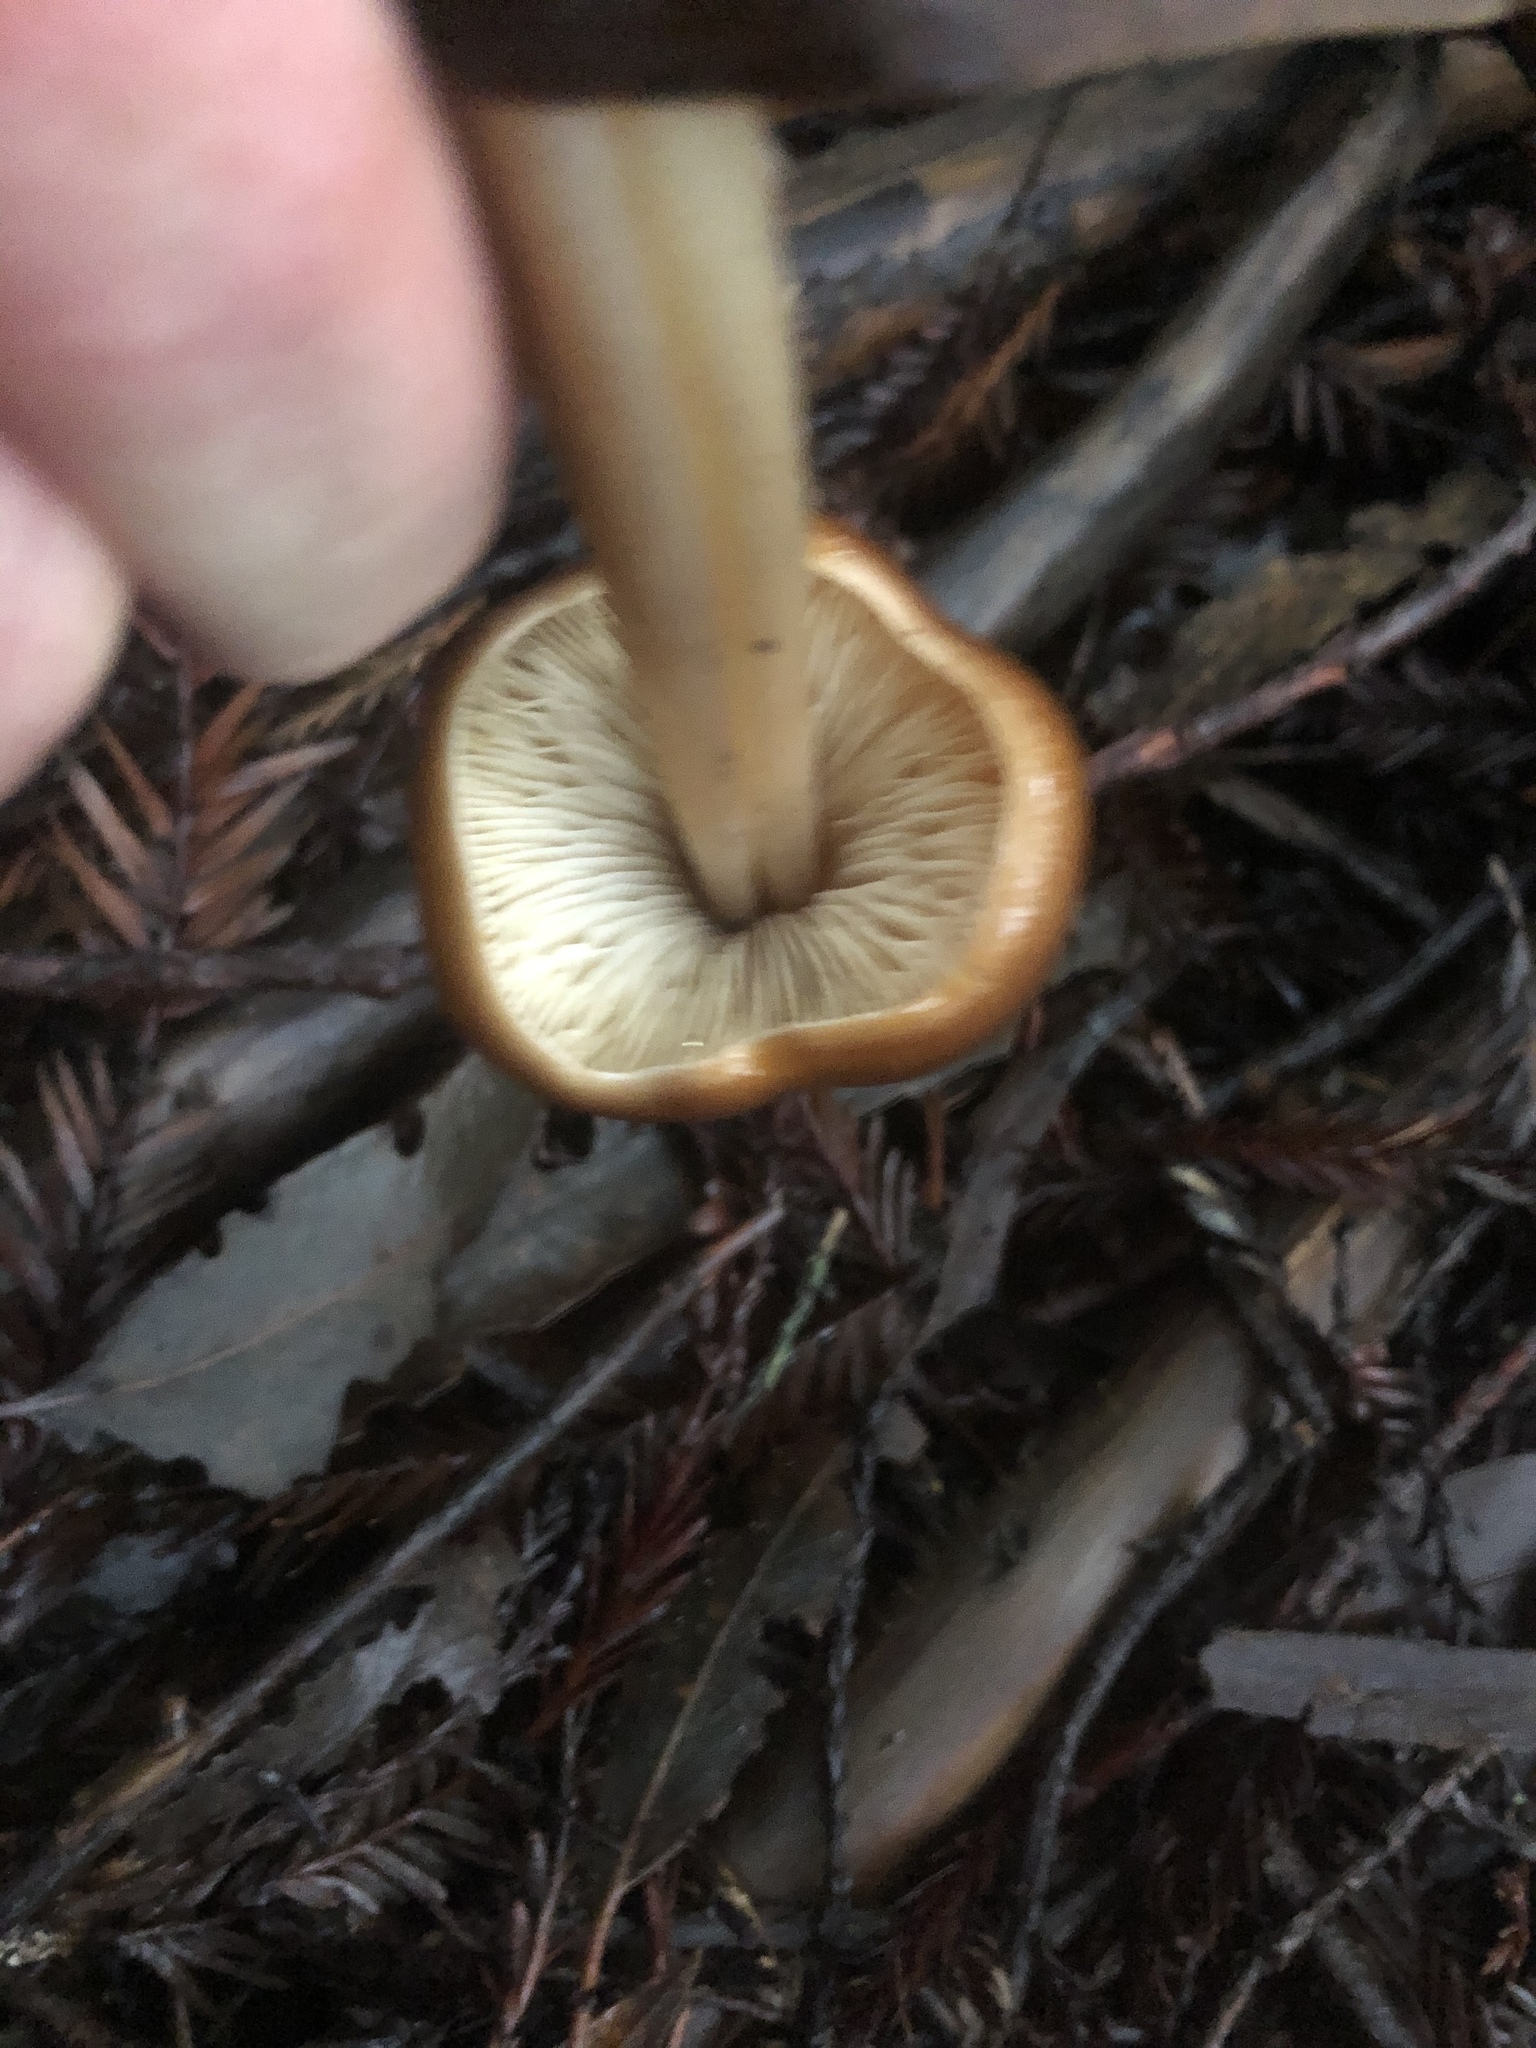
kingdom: Fungi
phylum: Basidiomycota
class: Agaricomycetes
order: Agaricales
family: Tricholomataceae
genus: Caulorhiza
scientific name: Caulorhiza umbonata
